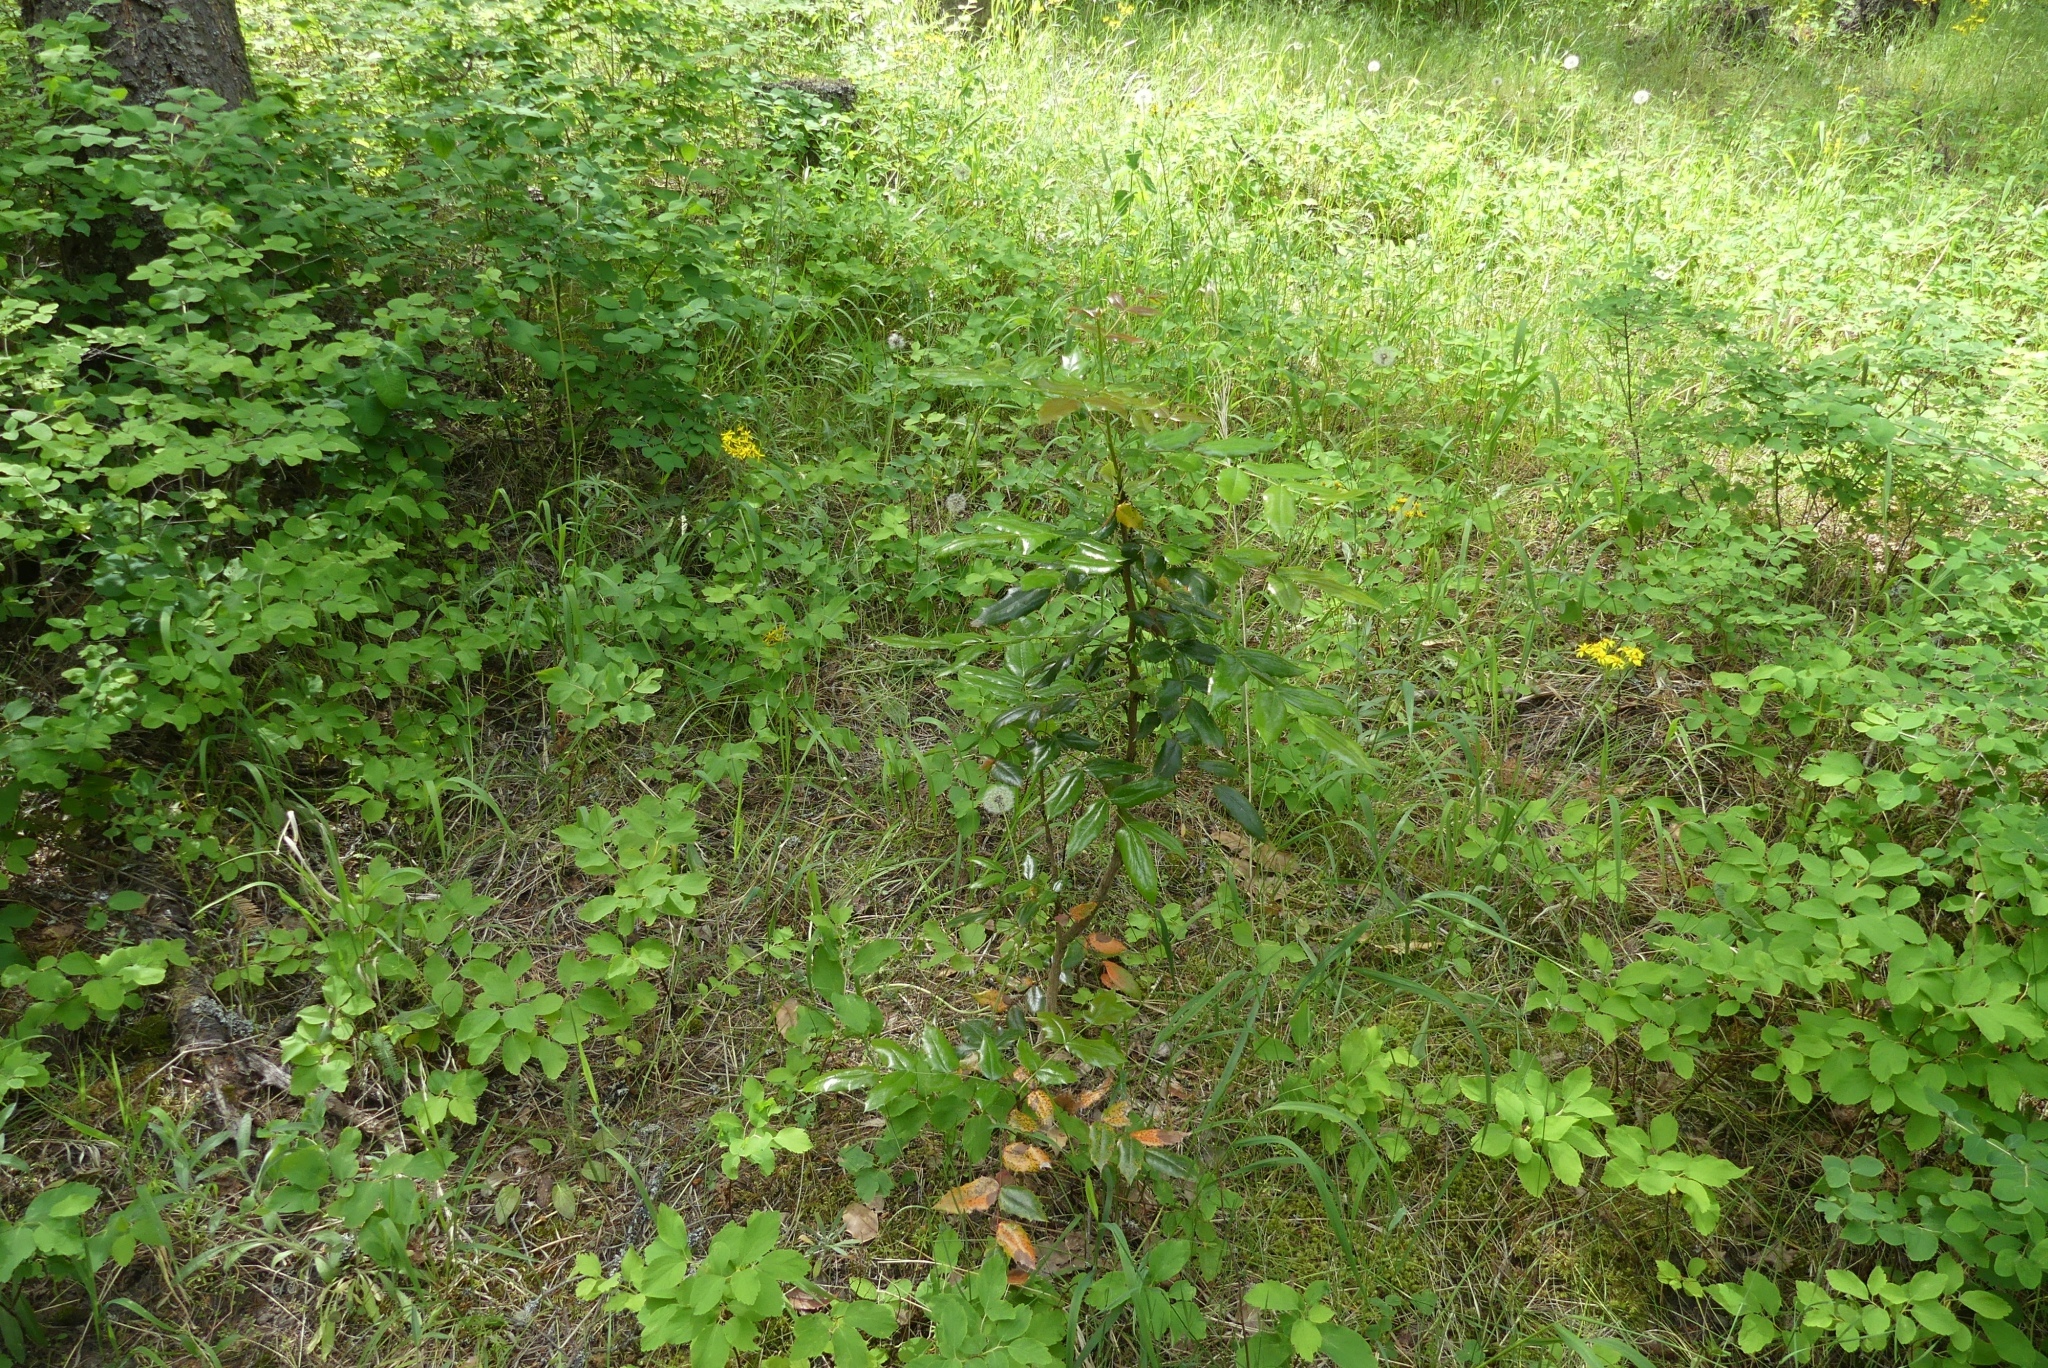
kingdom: Plantae
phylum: Tracheophyta
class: Magnoliopsida
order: Ranunculales
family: Berberidaceae
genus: Mahonia
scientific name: Mahonia aquifolium
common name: Oregon-grape
